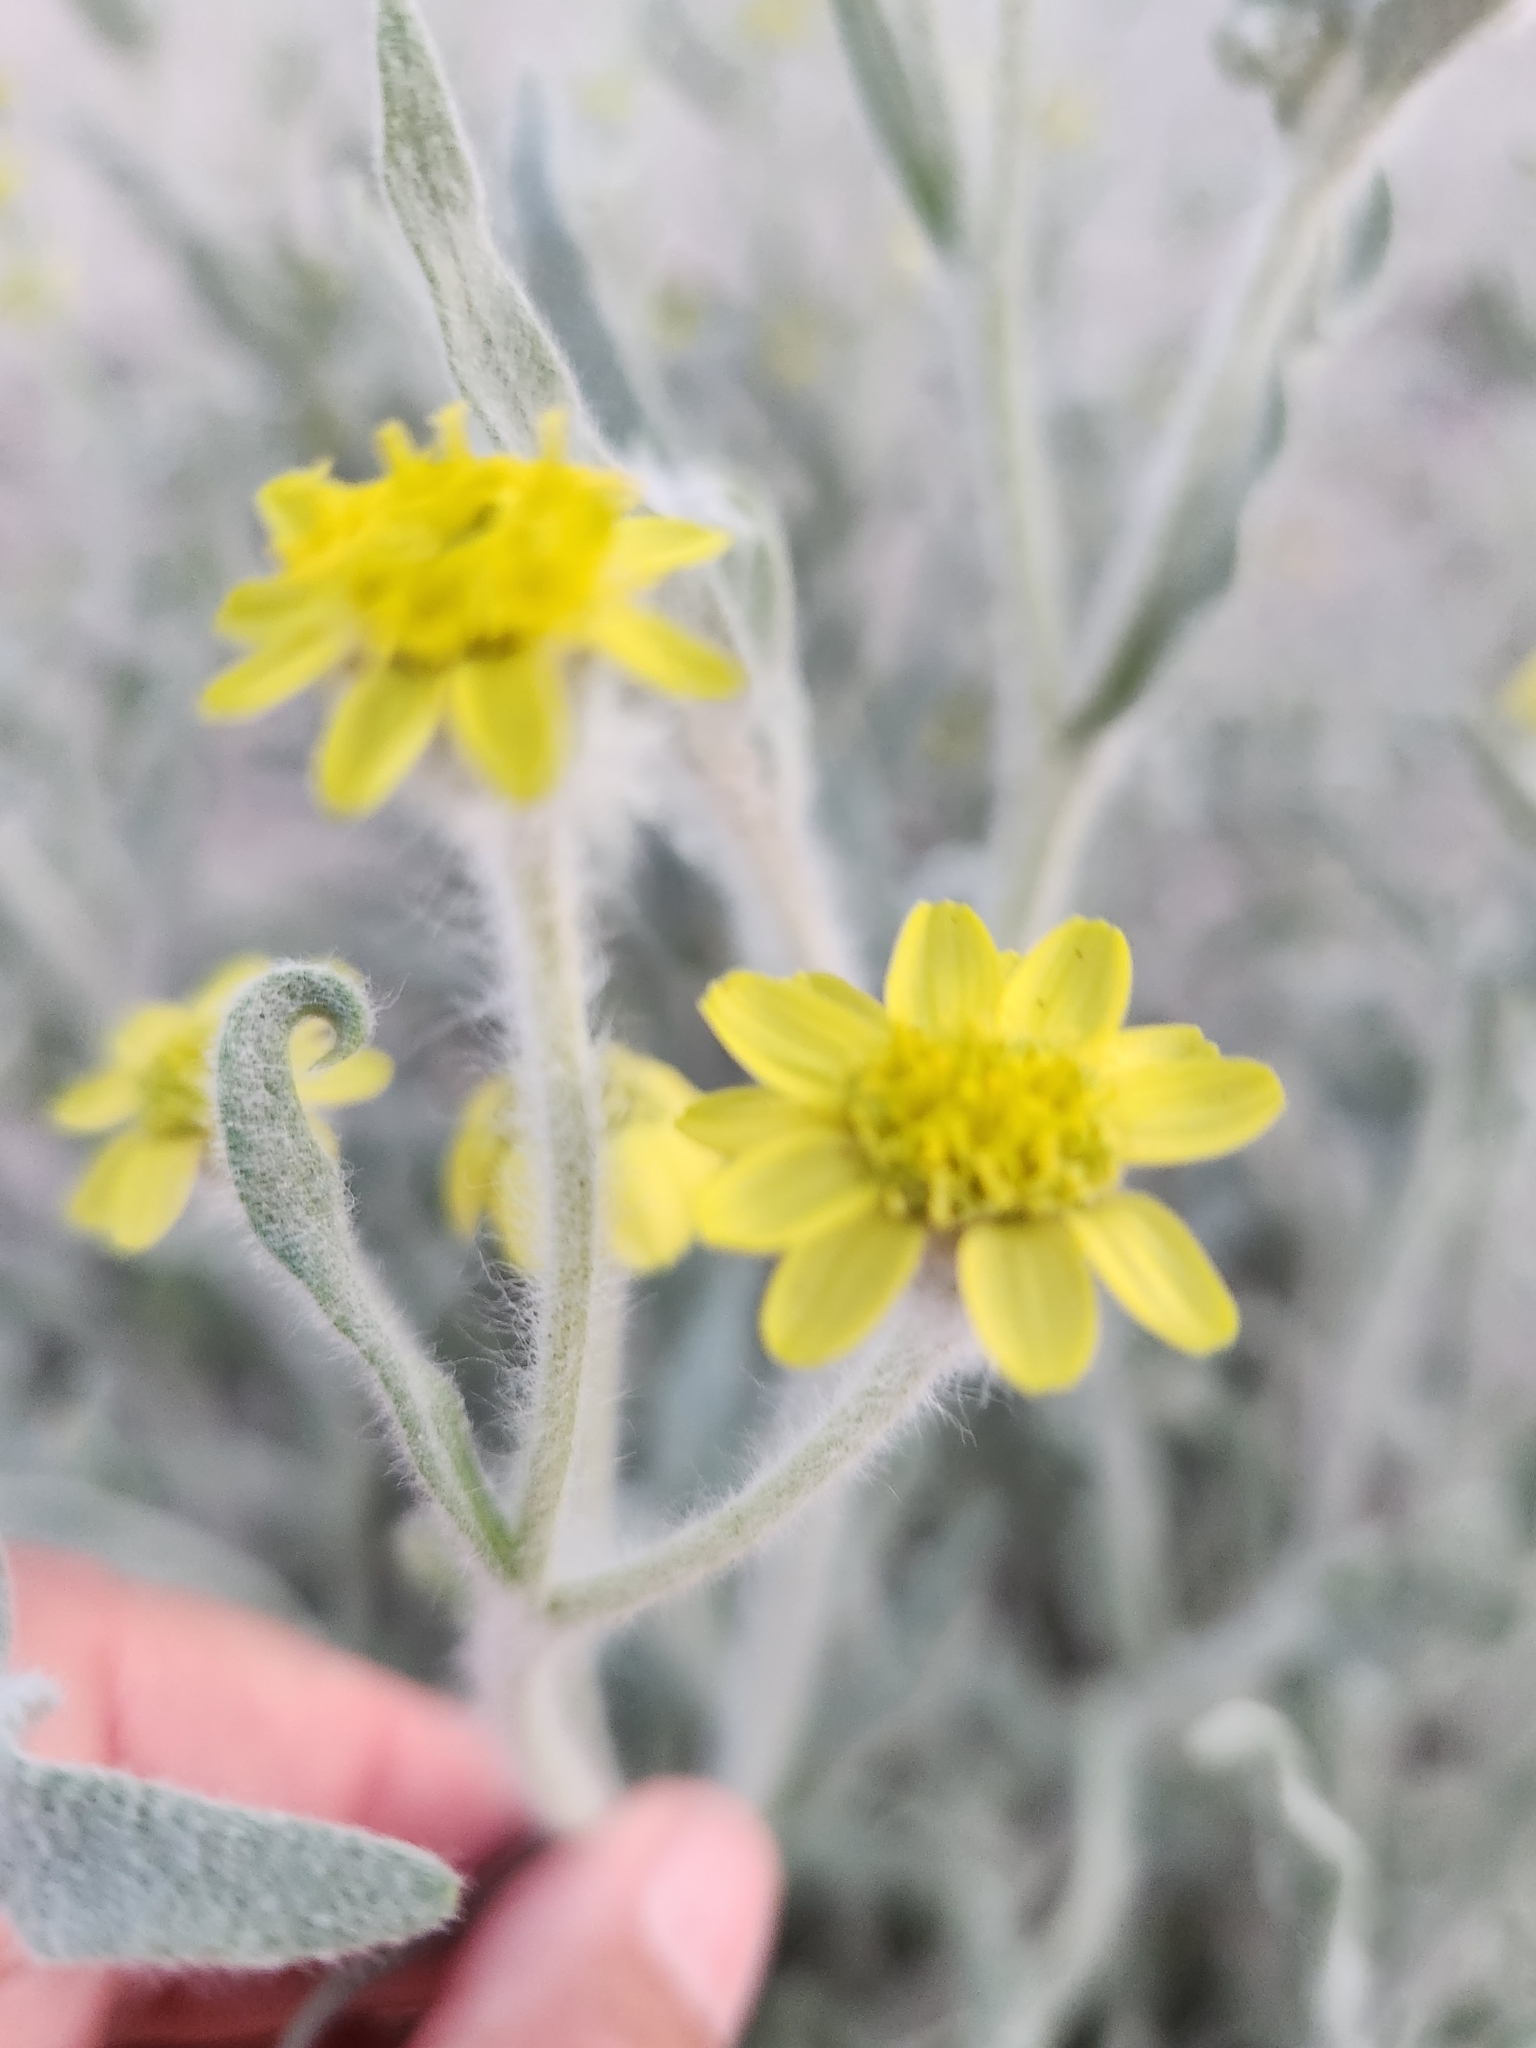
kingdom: Plantae
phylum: Tracheophyta
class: Magnoliopsida
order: Asterales
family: Asteraceae
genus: Baileya
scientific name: Baileya pauciradiata
